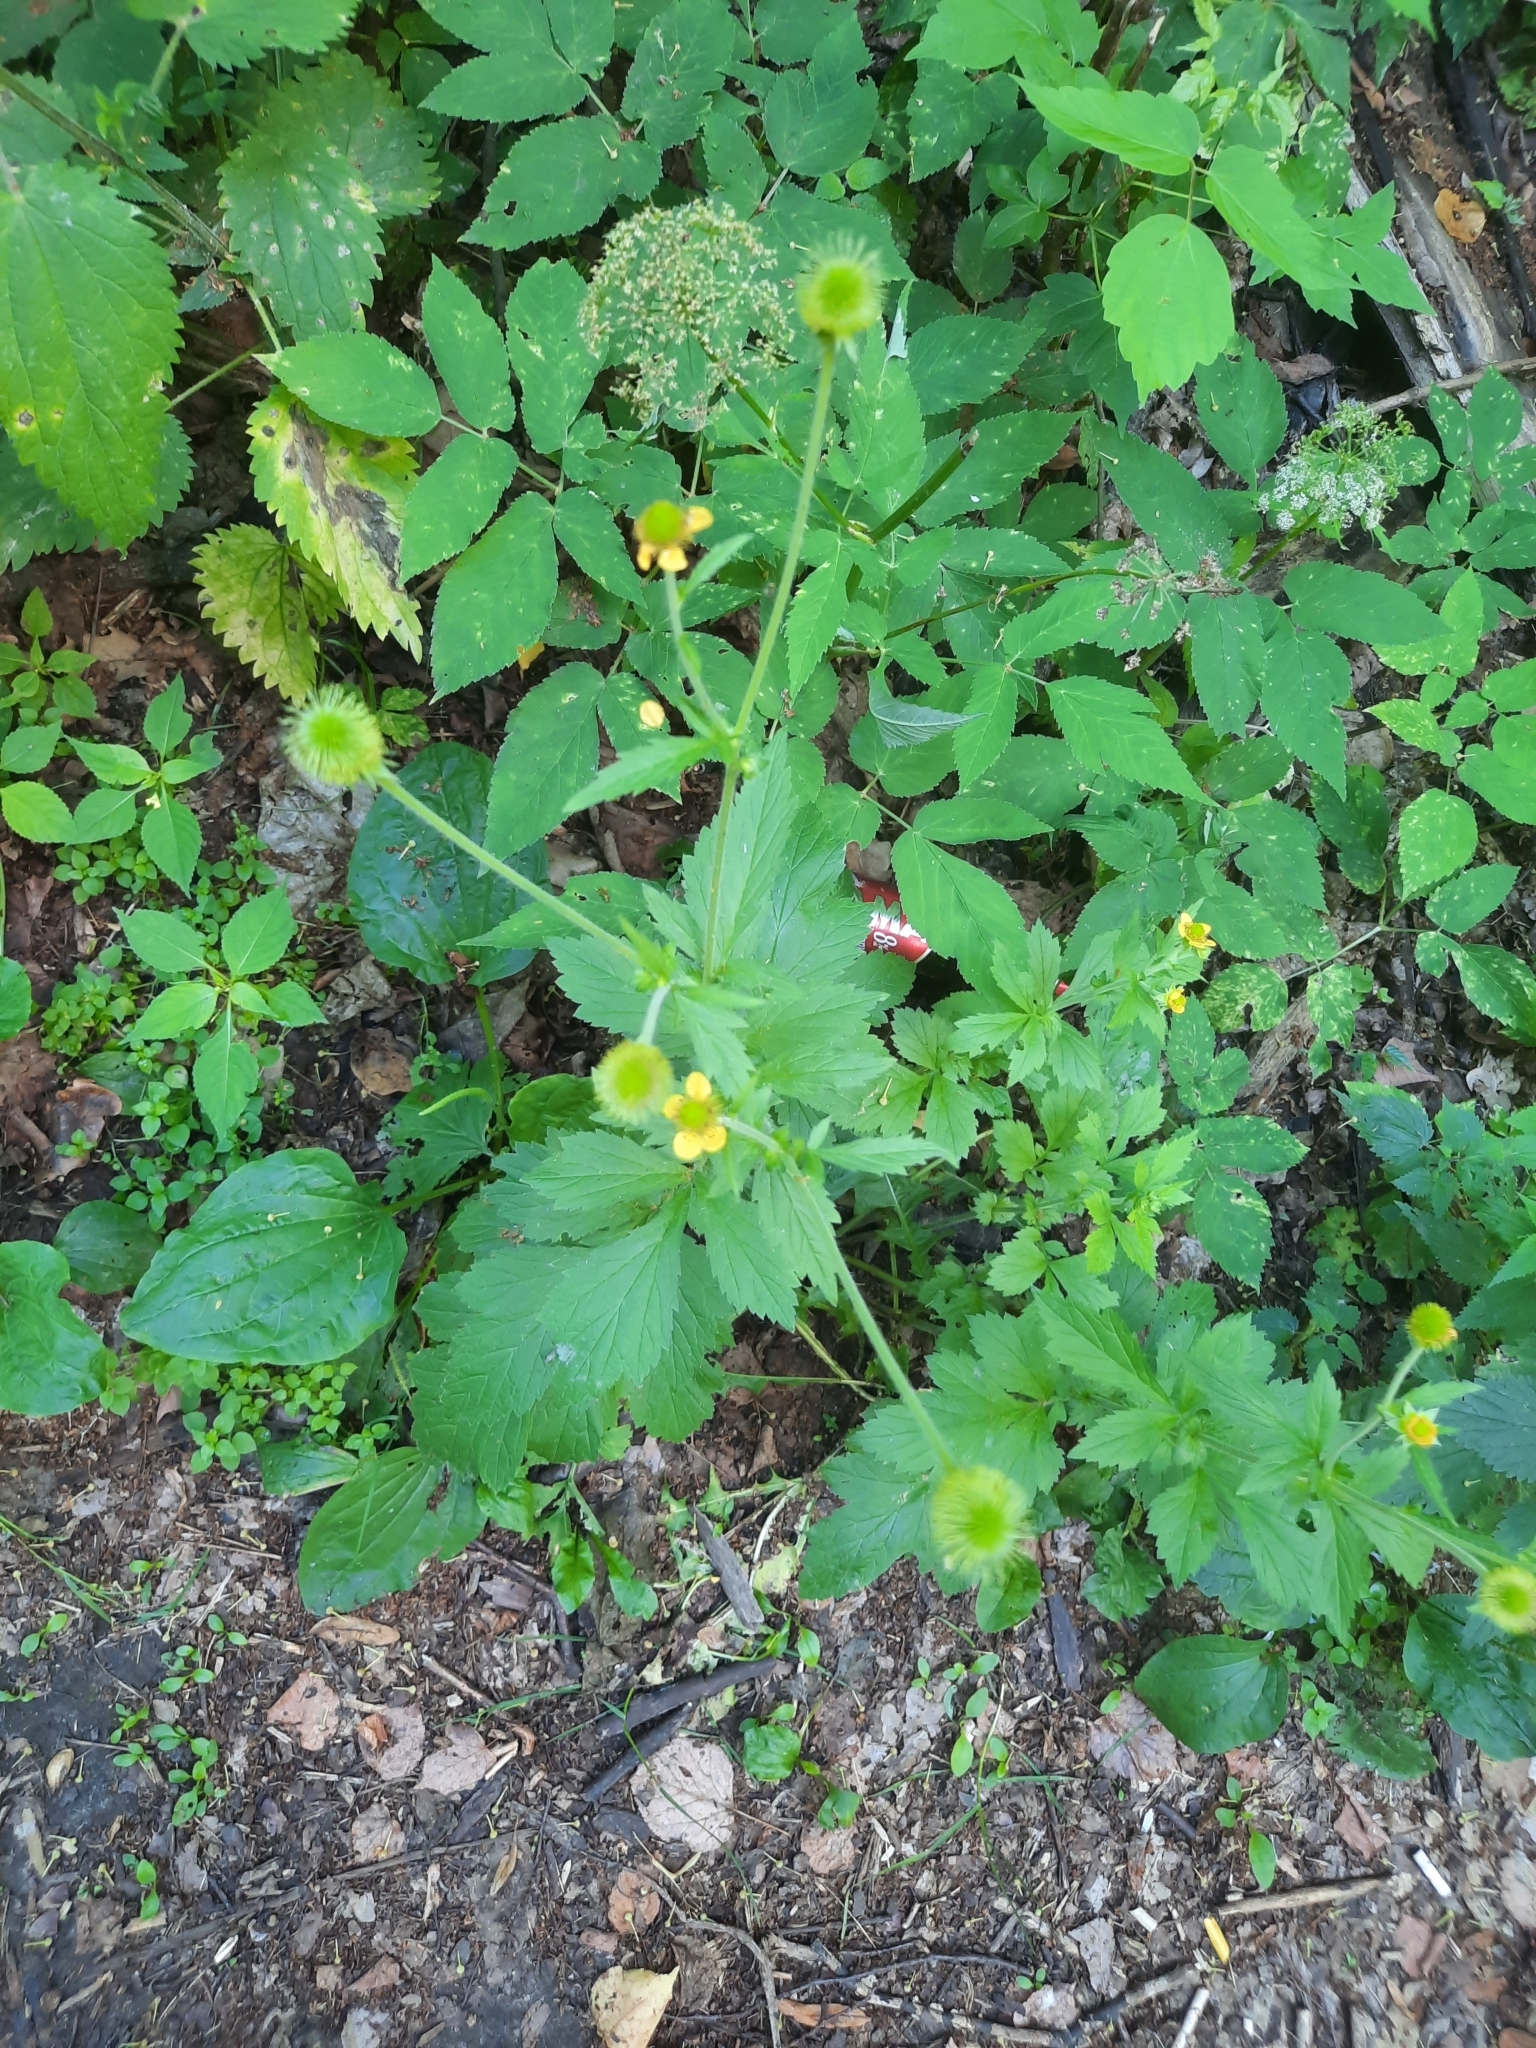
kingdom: Plantae
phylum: Tracheophyta
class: Magnoliopsida
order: Rosales
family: Rosaceae
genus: Geum
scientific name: Geum aleppicum
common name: Yellow avens
